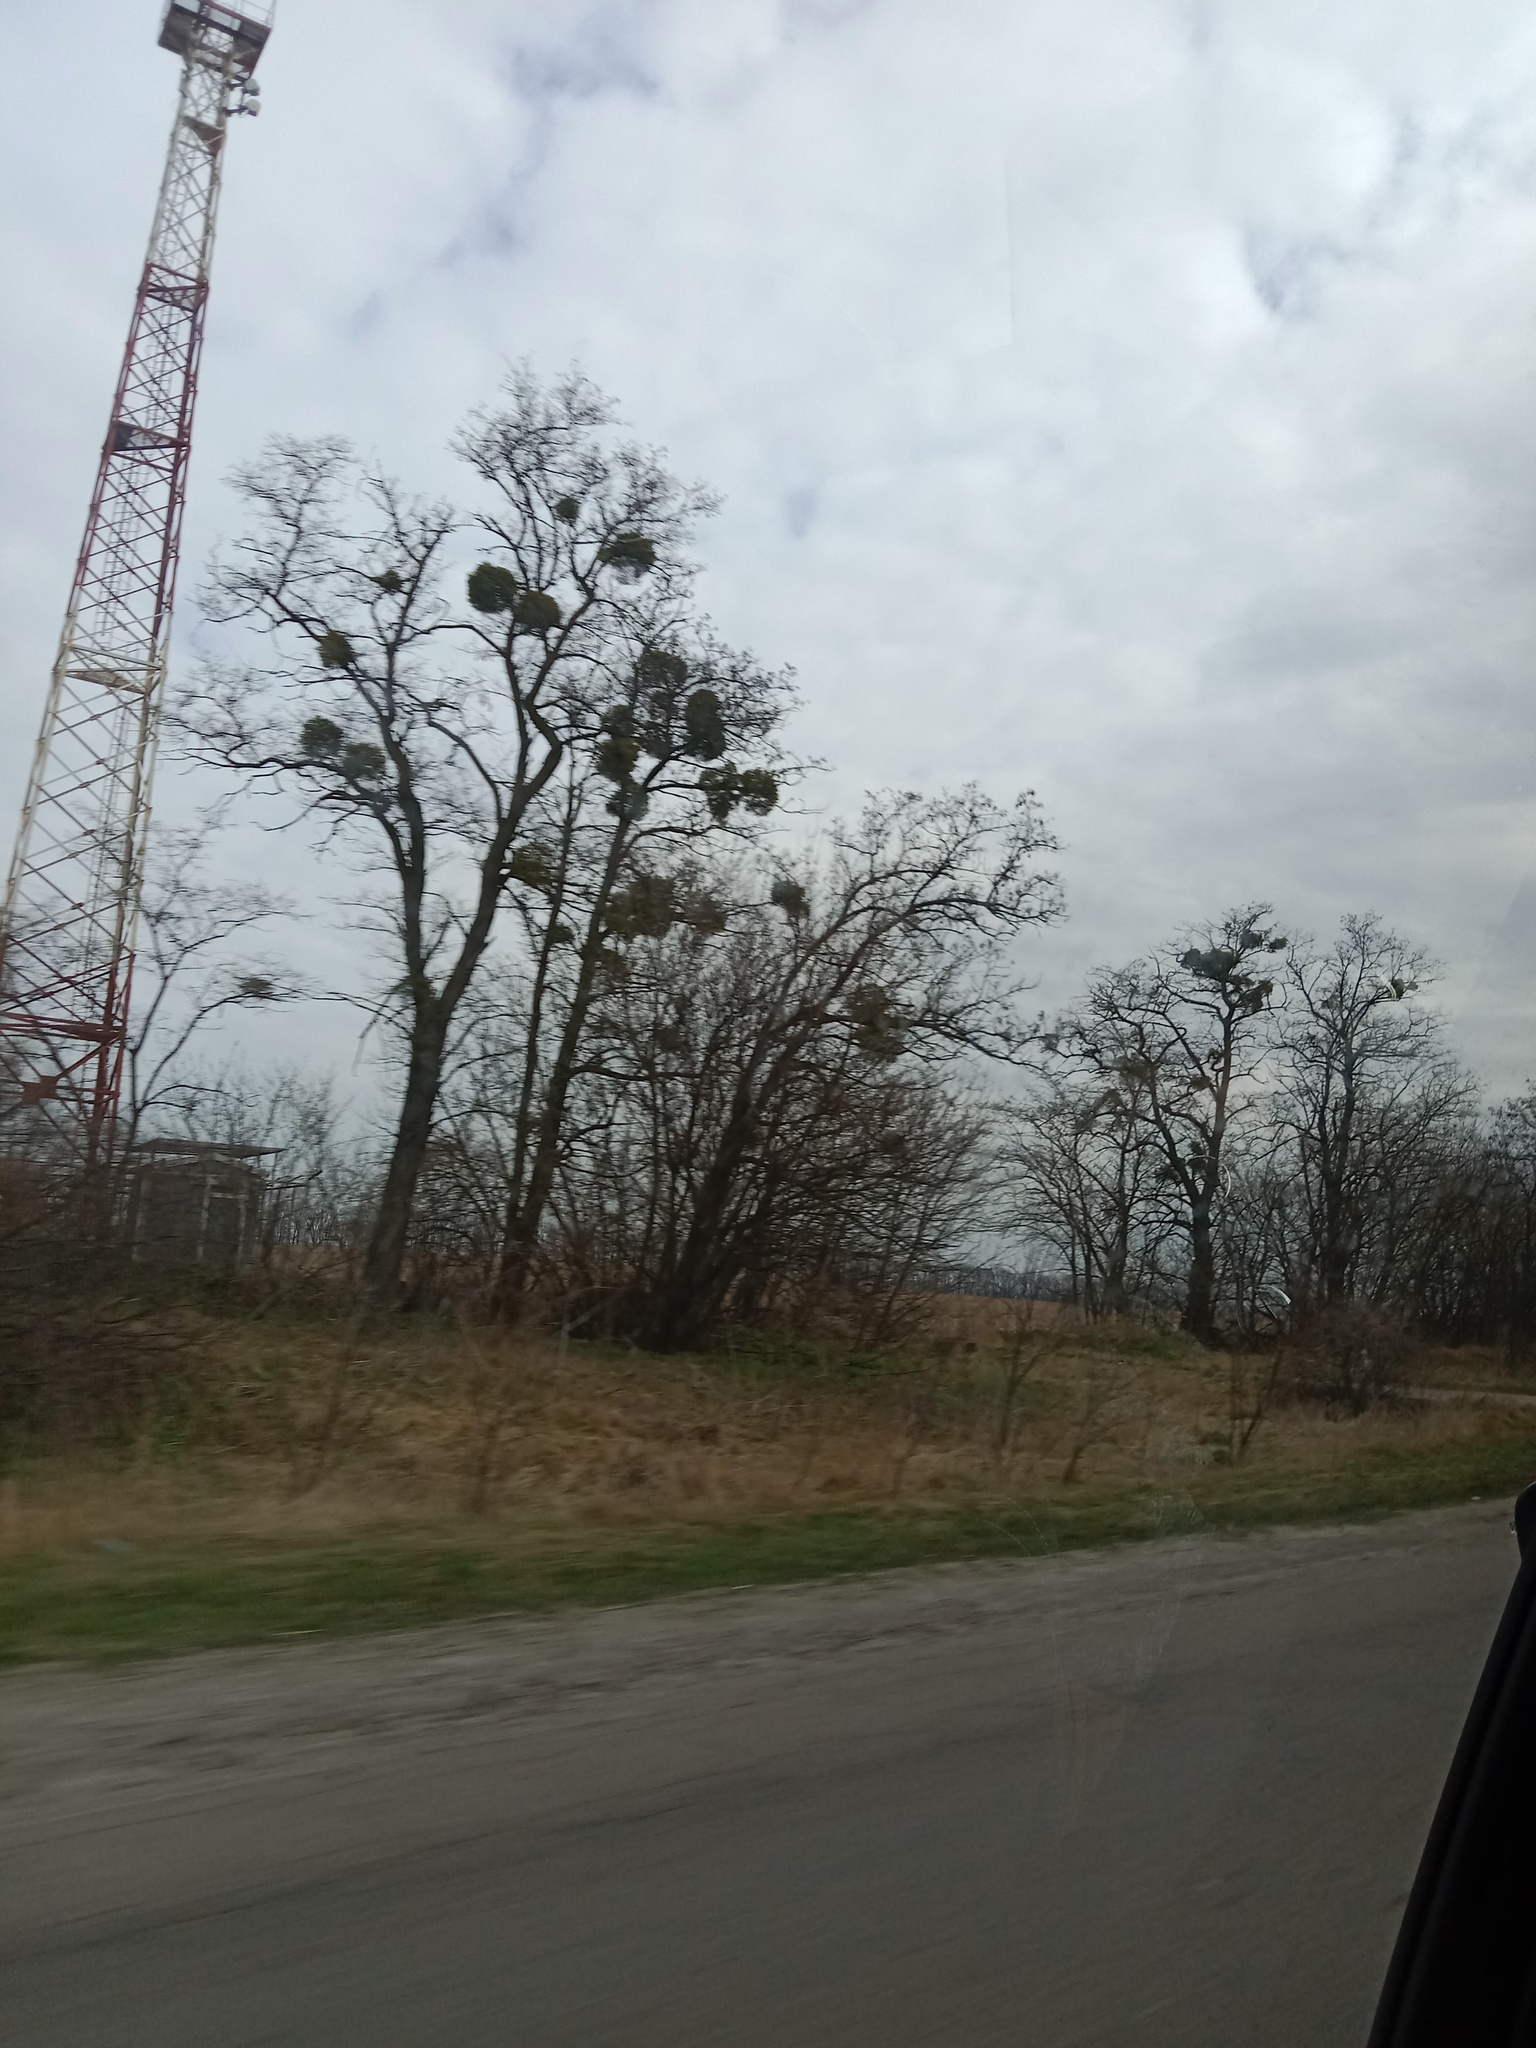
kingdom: Plantae
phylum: Tracheophyta
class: Magnoliopsida
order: Santalales
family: Viscaceae
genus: Viscum
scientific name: Viscum album
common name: Mistletoe
